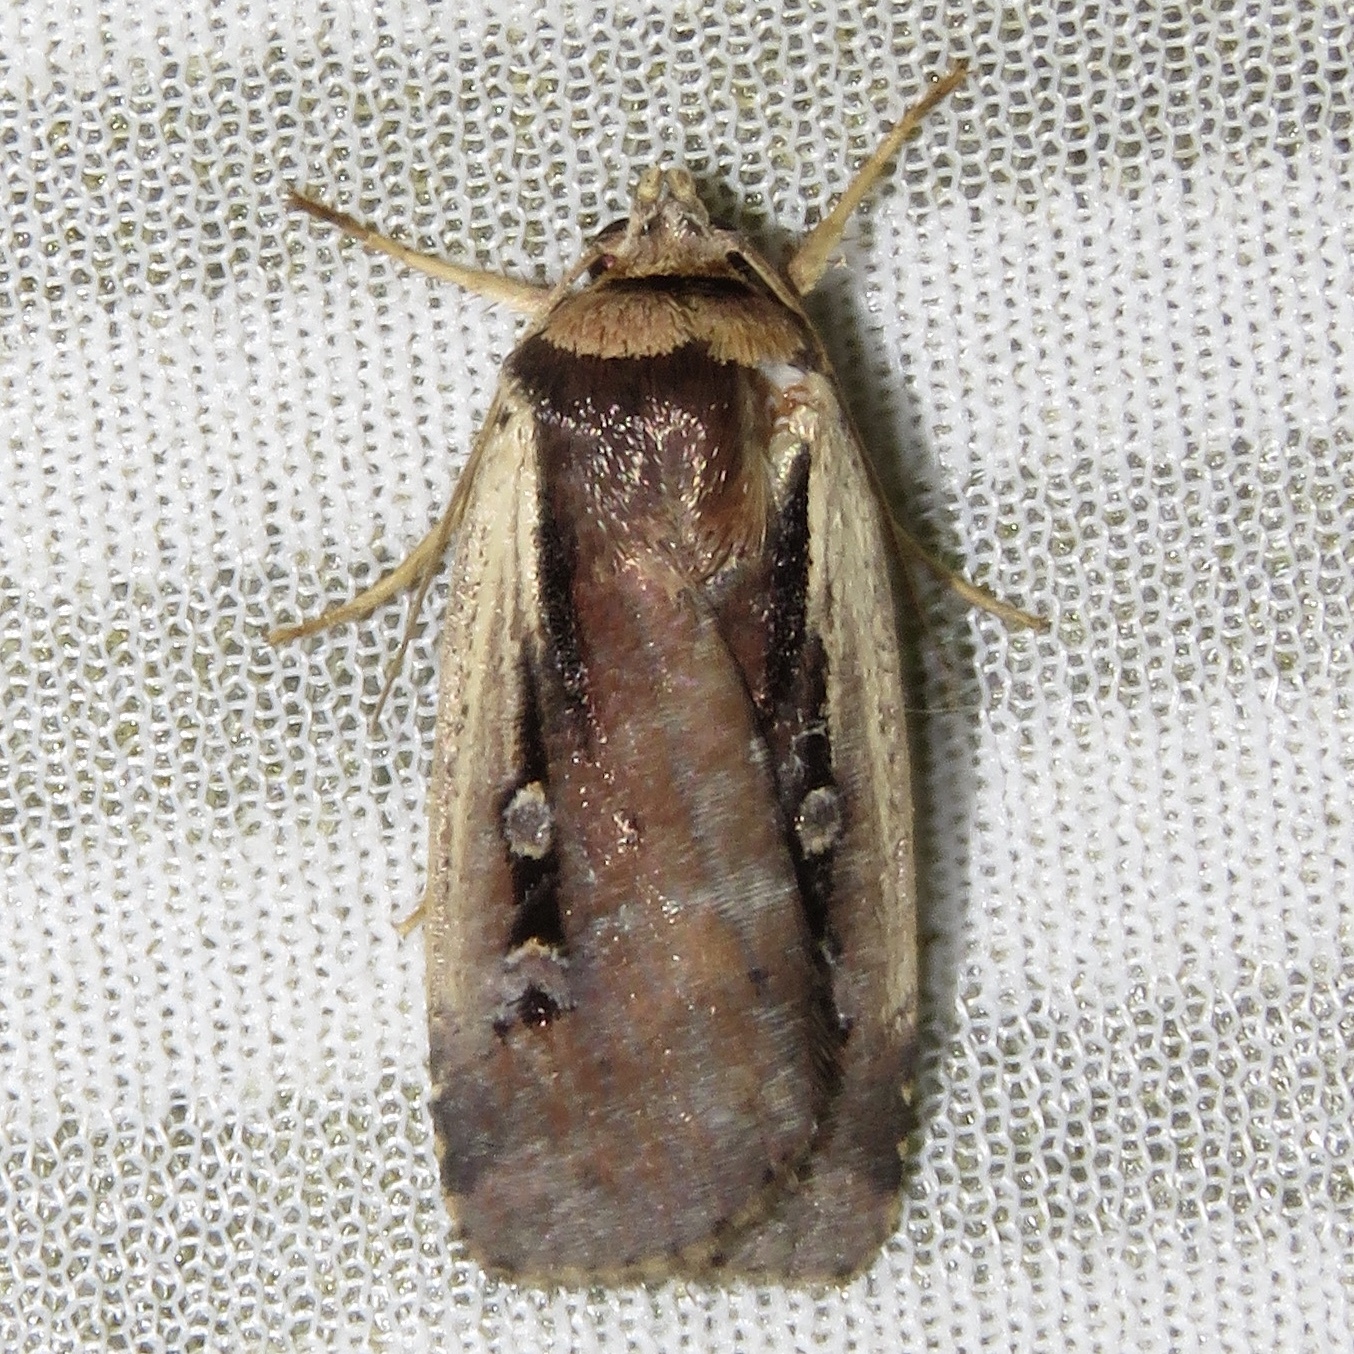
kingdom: Animalia
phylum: Arthropoda
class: Insecta
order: Lepidoptera
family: Noctuidae
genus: Ochropleura
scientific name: Ochropleura implecta
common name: Flame-shouldered dart
